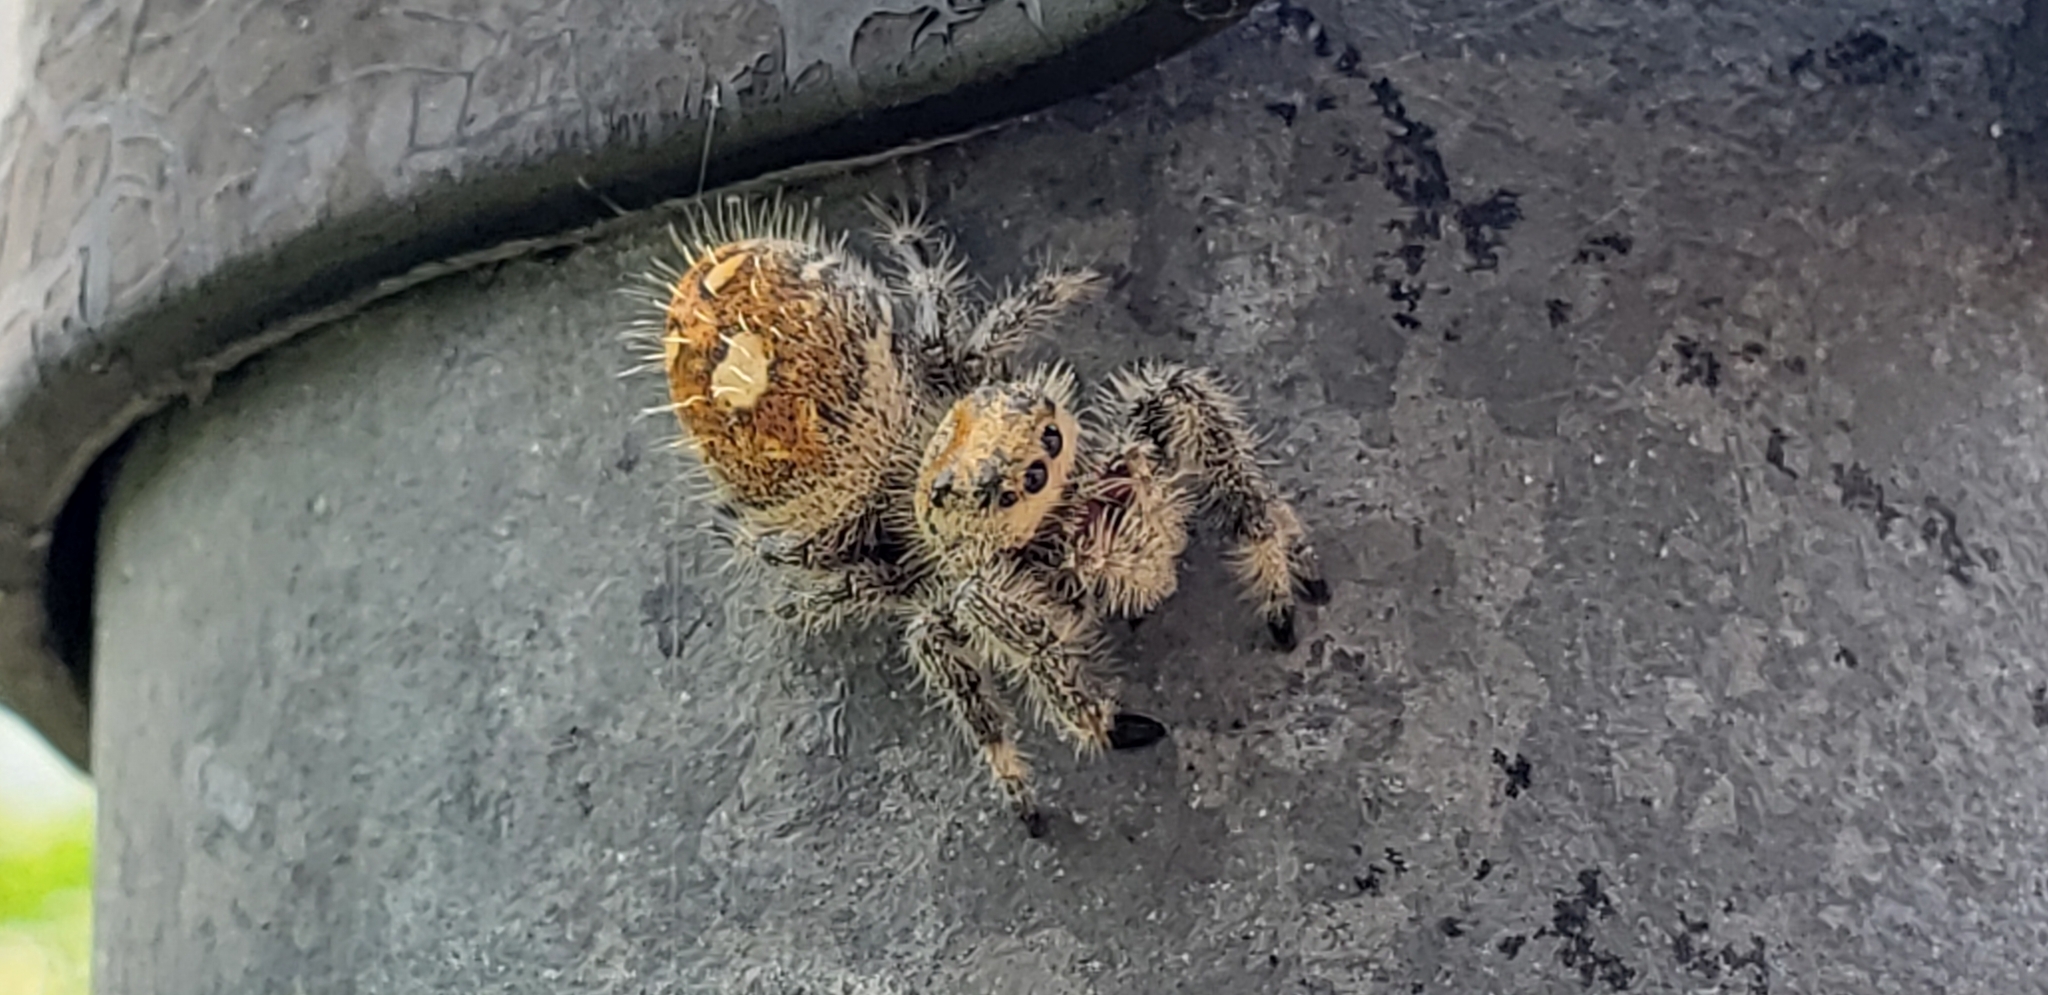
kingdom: Animalia
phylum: Arthropoda
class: Arachnida
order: Araneae
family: Salticidae
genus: Phidippus
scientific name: Phidippus regius
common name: Regal jumper
